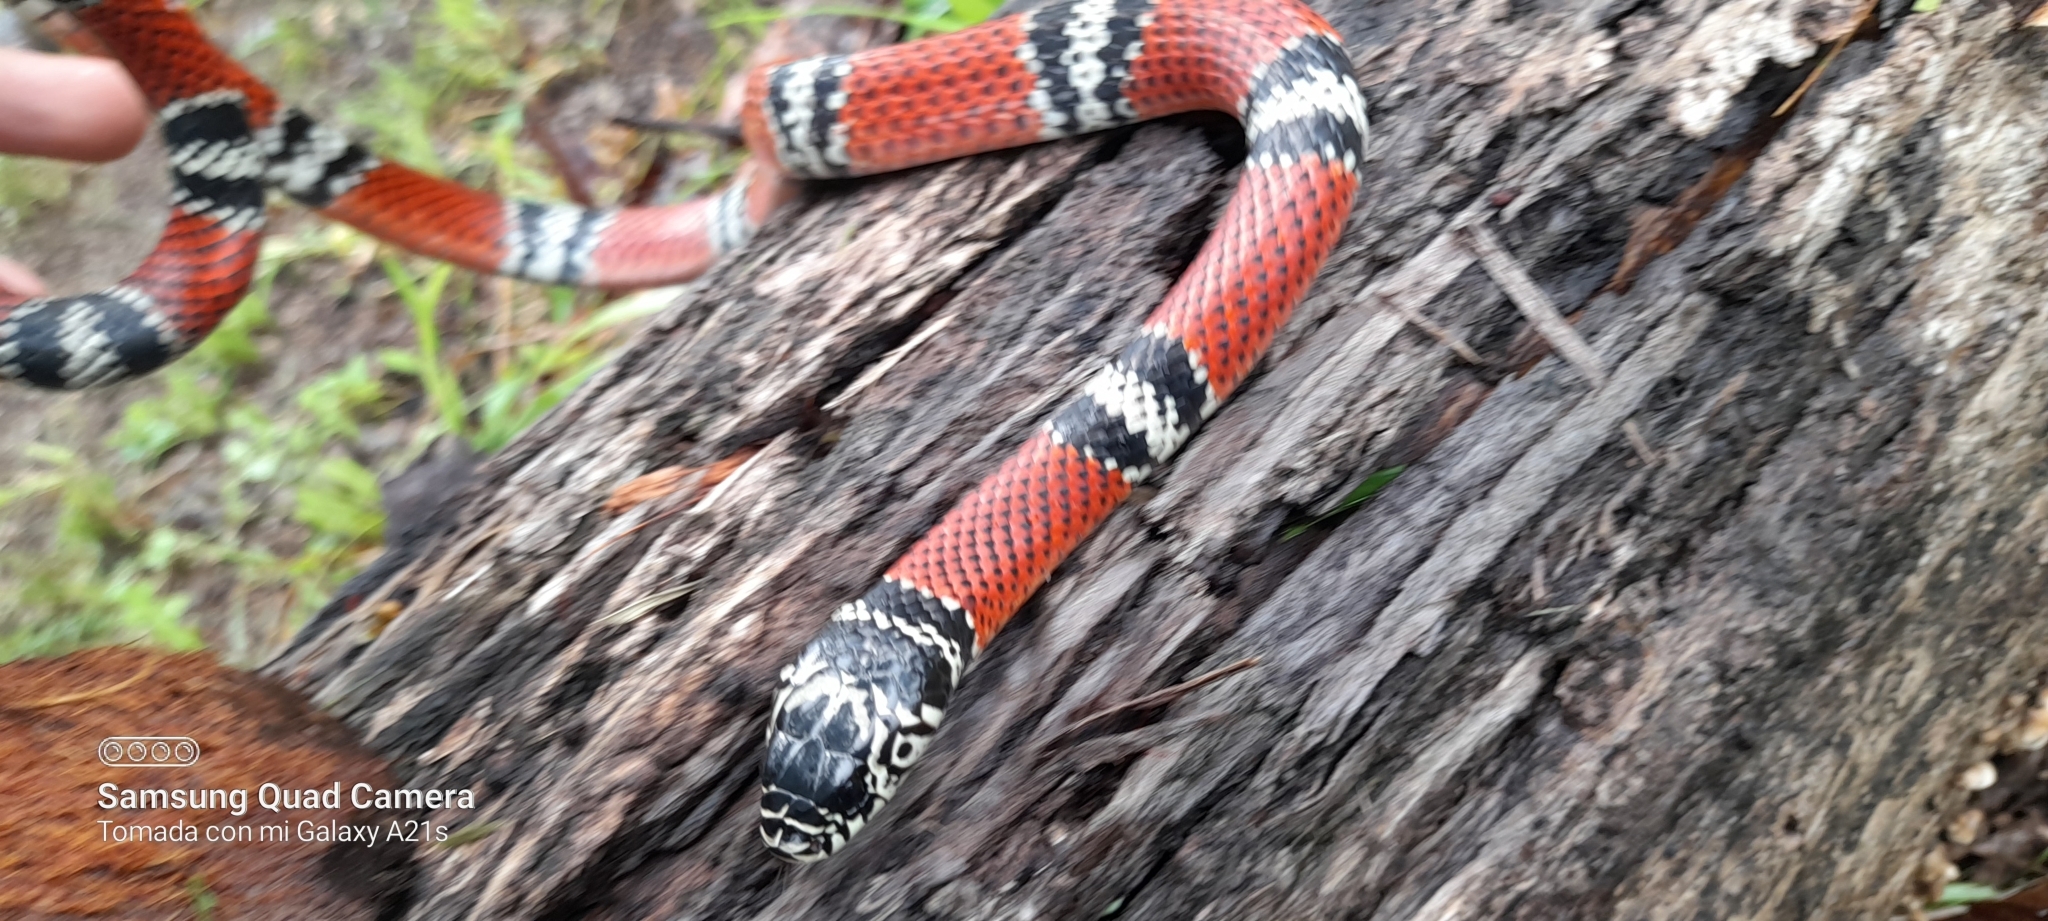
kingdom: Animalia
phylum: Chordata
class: Squamata
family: Colubridae
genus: Erythrolamprus
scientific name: Erythrolamprus bizona
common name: Double-banded coral snake mimic
